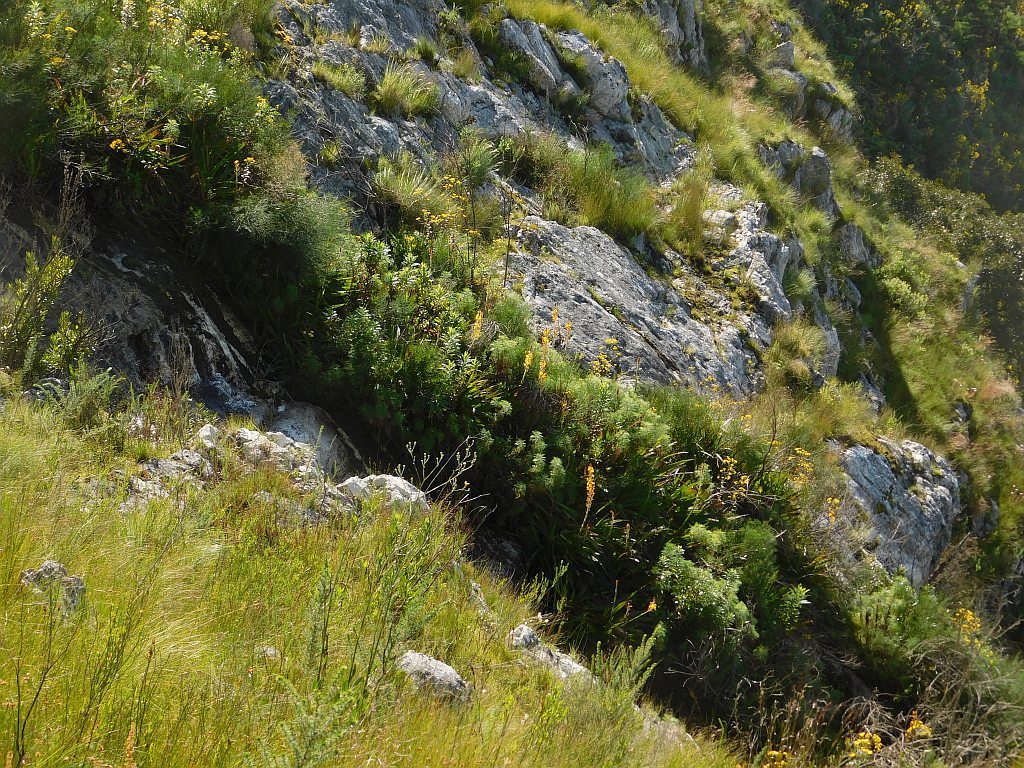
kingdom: Plantae
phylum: Tracheophyta
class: Liliopsida
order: Commelinales
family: Haemodoraceae
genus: Wachendorfia
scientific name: Wachendorfia thyrsiflora
